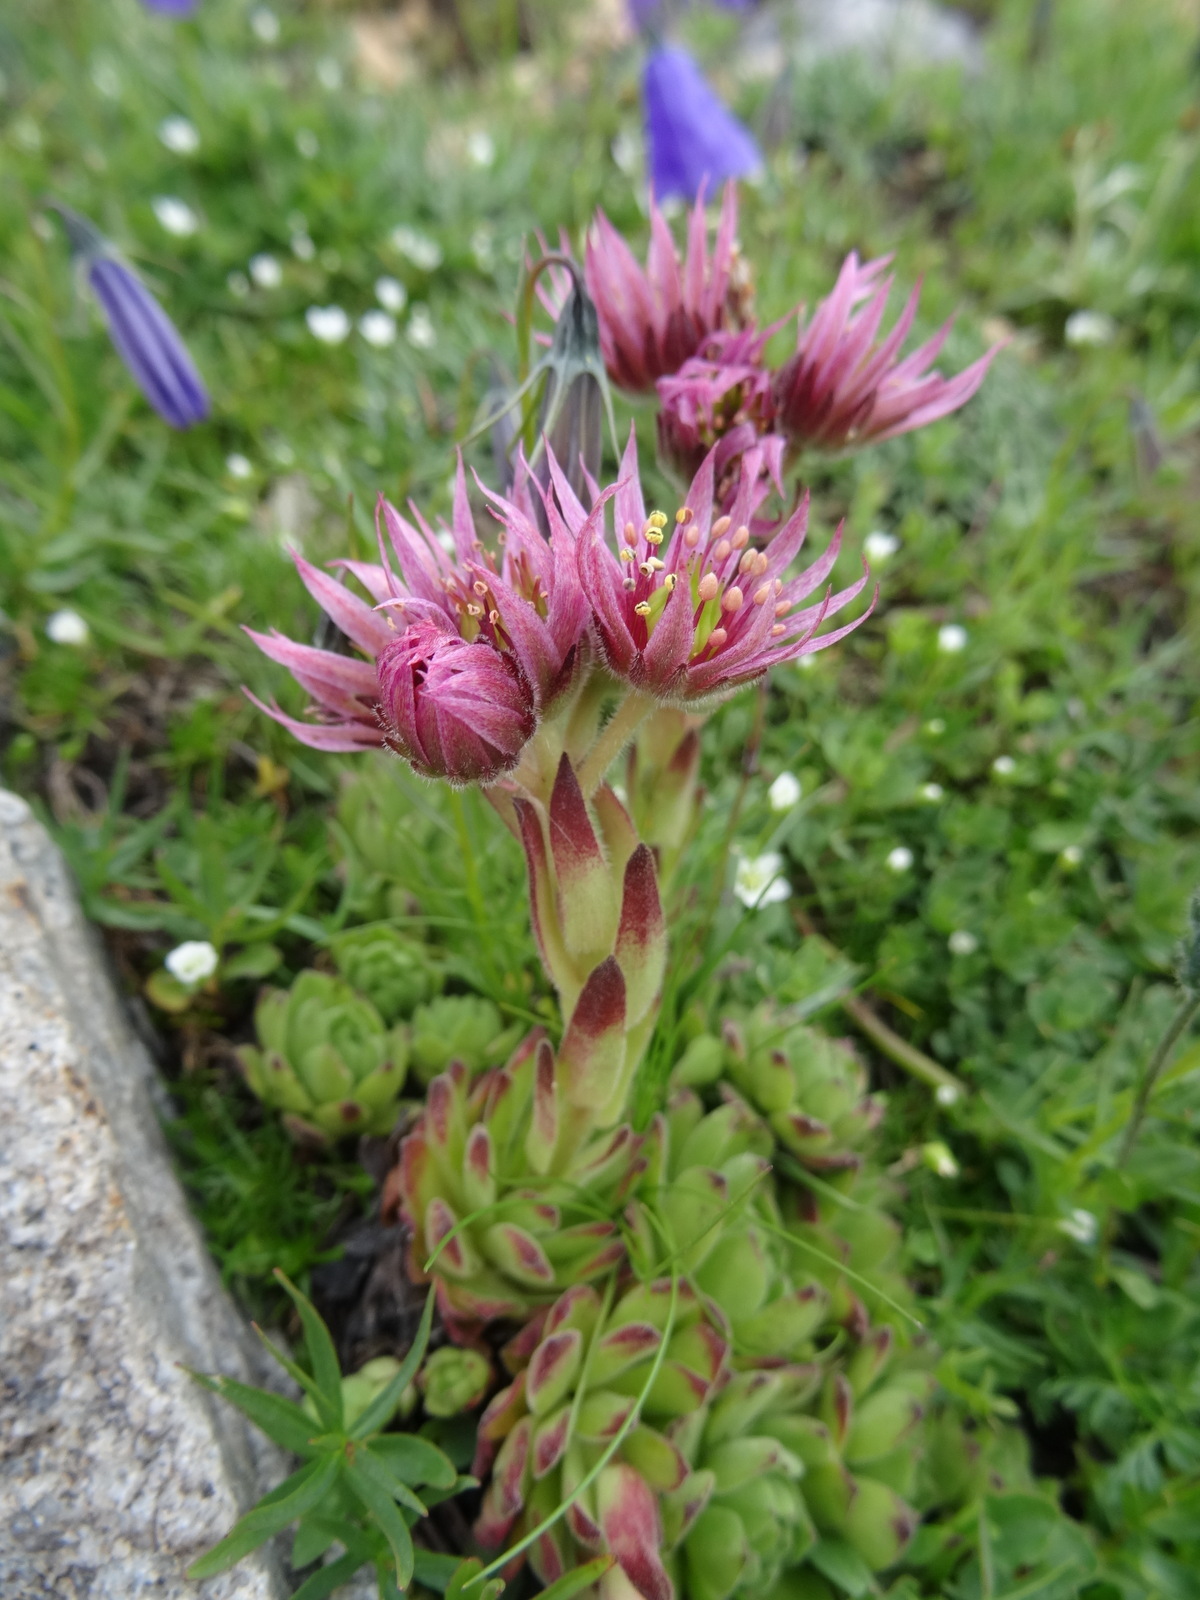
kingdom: Plantae
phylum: Tracheophyta
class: Magnoliopsida
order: Saxifragales
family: Crassulaceae
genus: Sempervivum
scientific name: Sempervivum montanum
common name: Mountain house-leek
